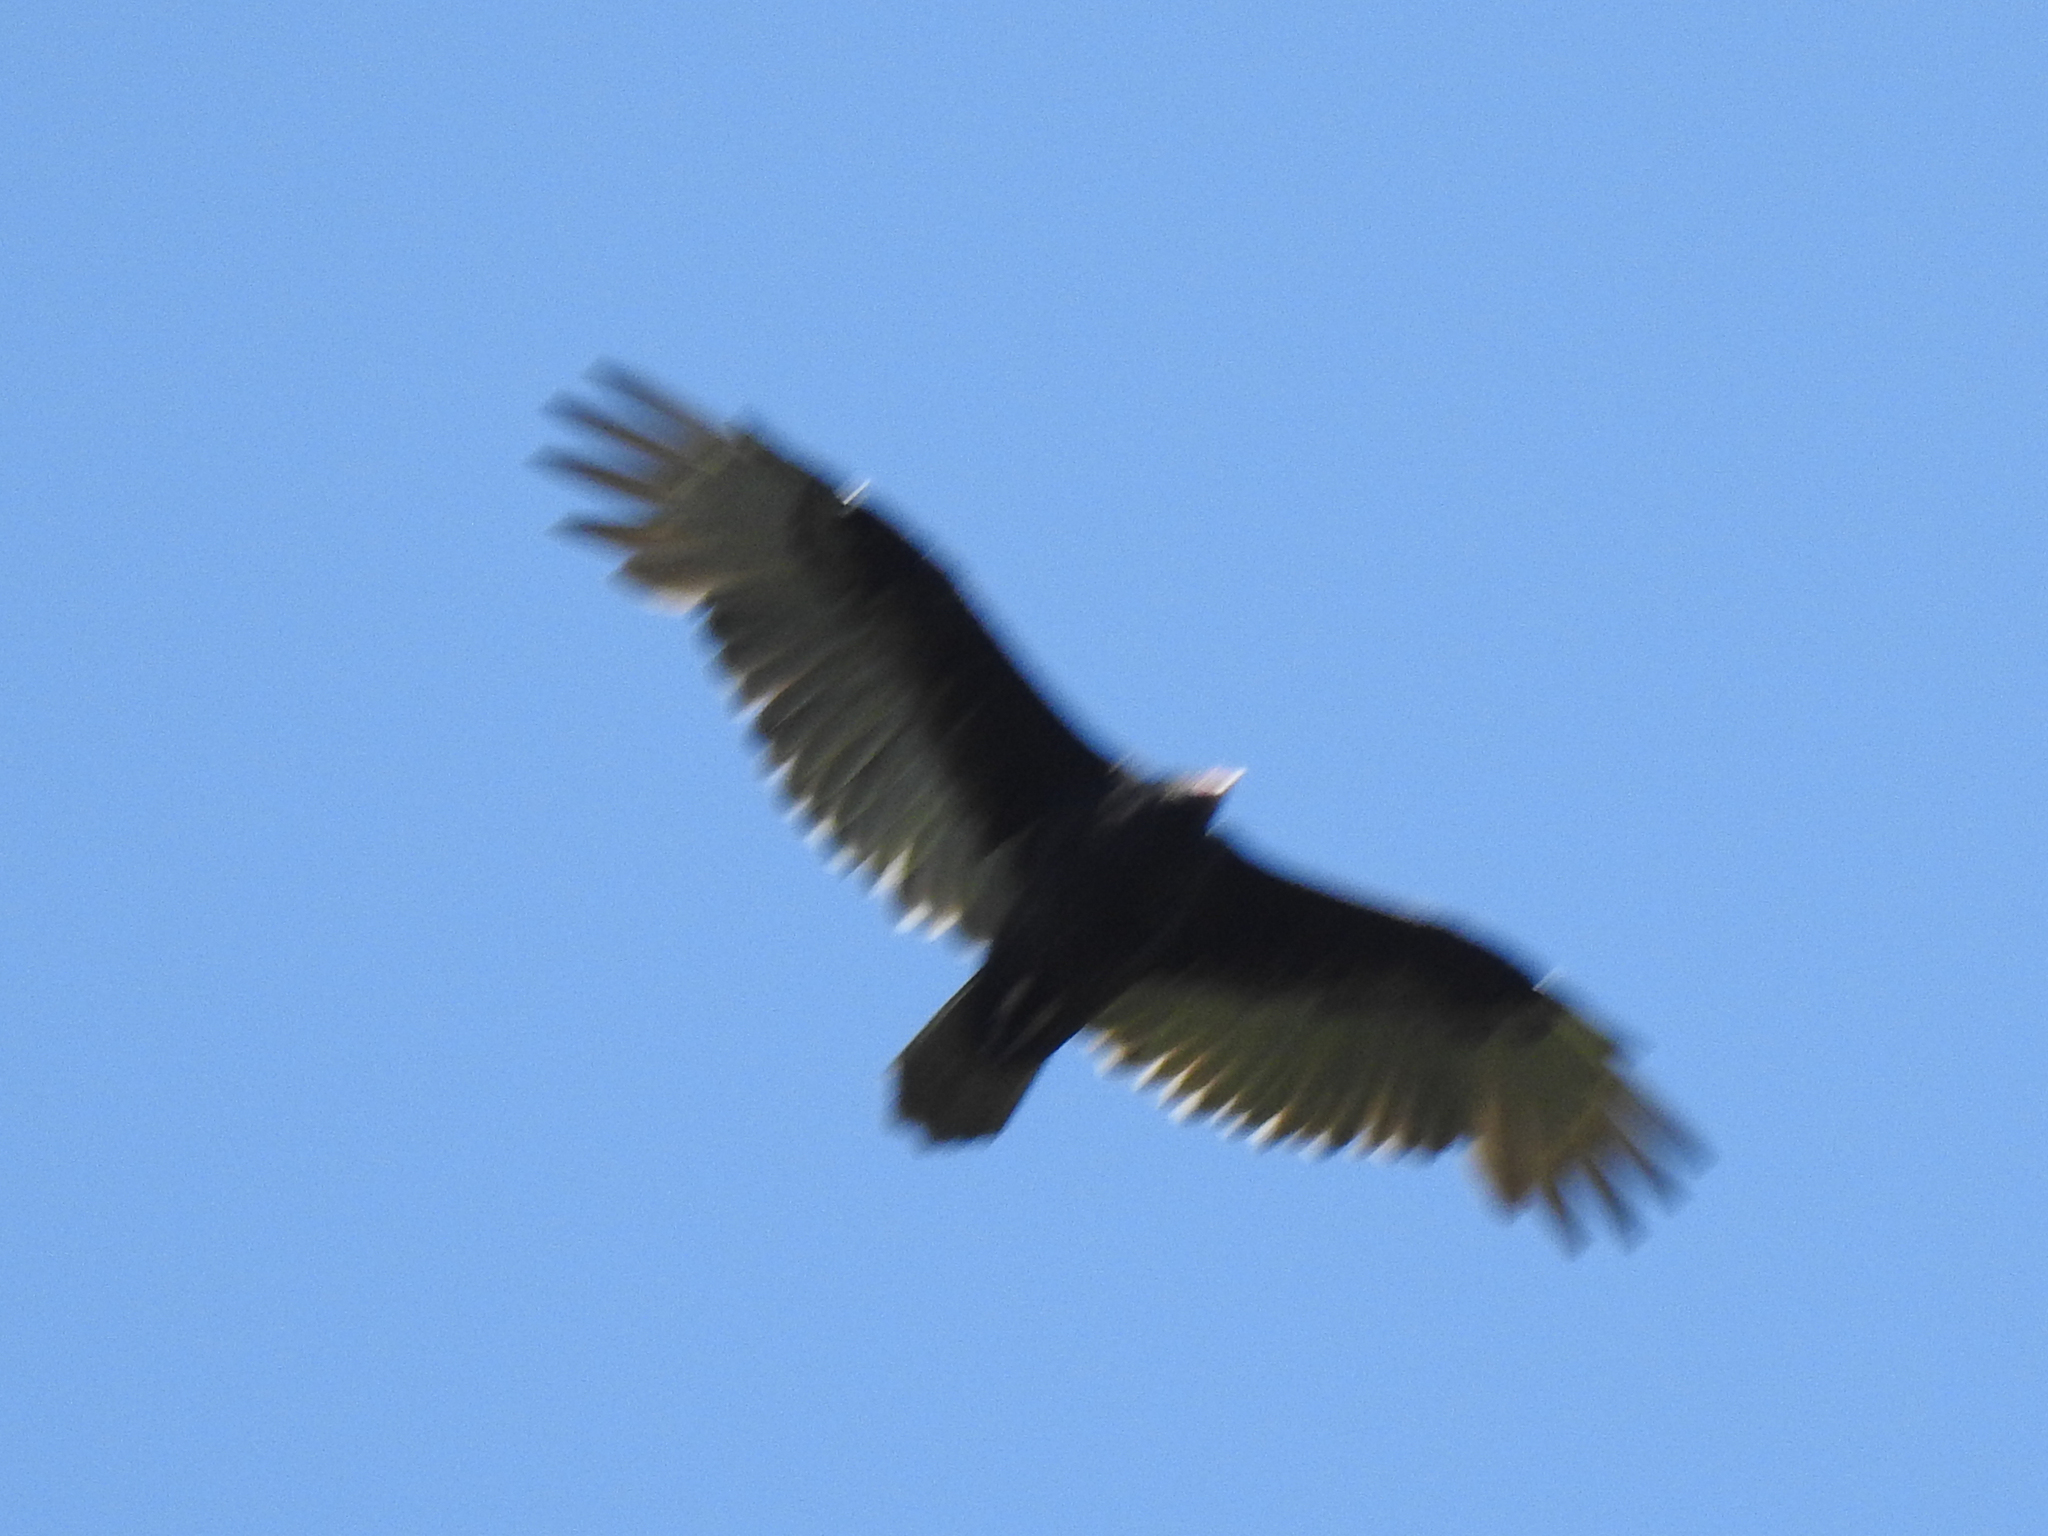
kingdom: Animalia
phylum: Chordata
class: Aves
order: Accipitriformes
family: Cathartidae
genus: Cathartes
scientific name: Cathartes aura
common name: Turkey vulture
